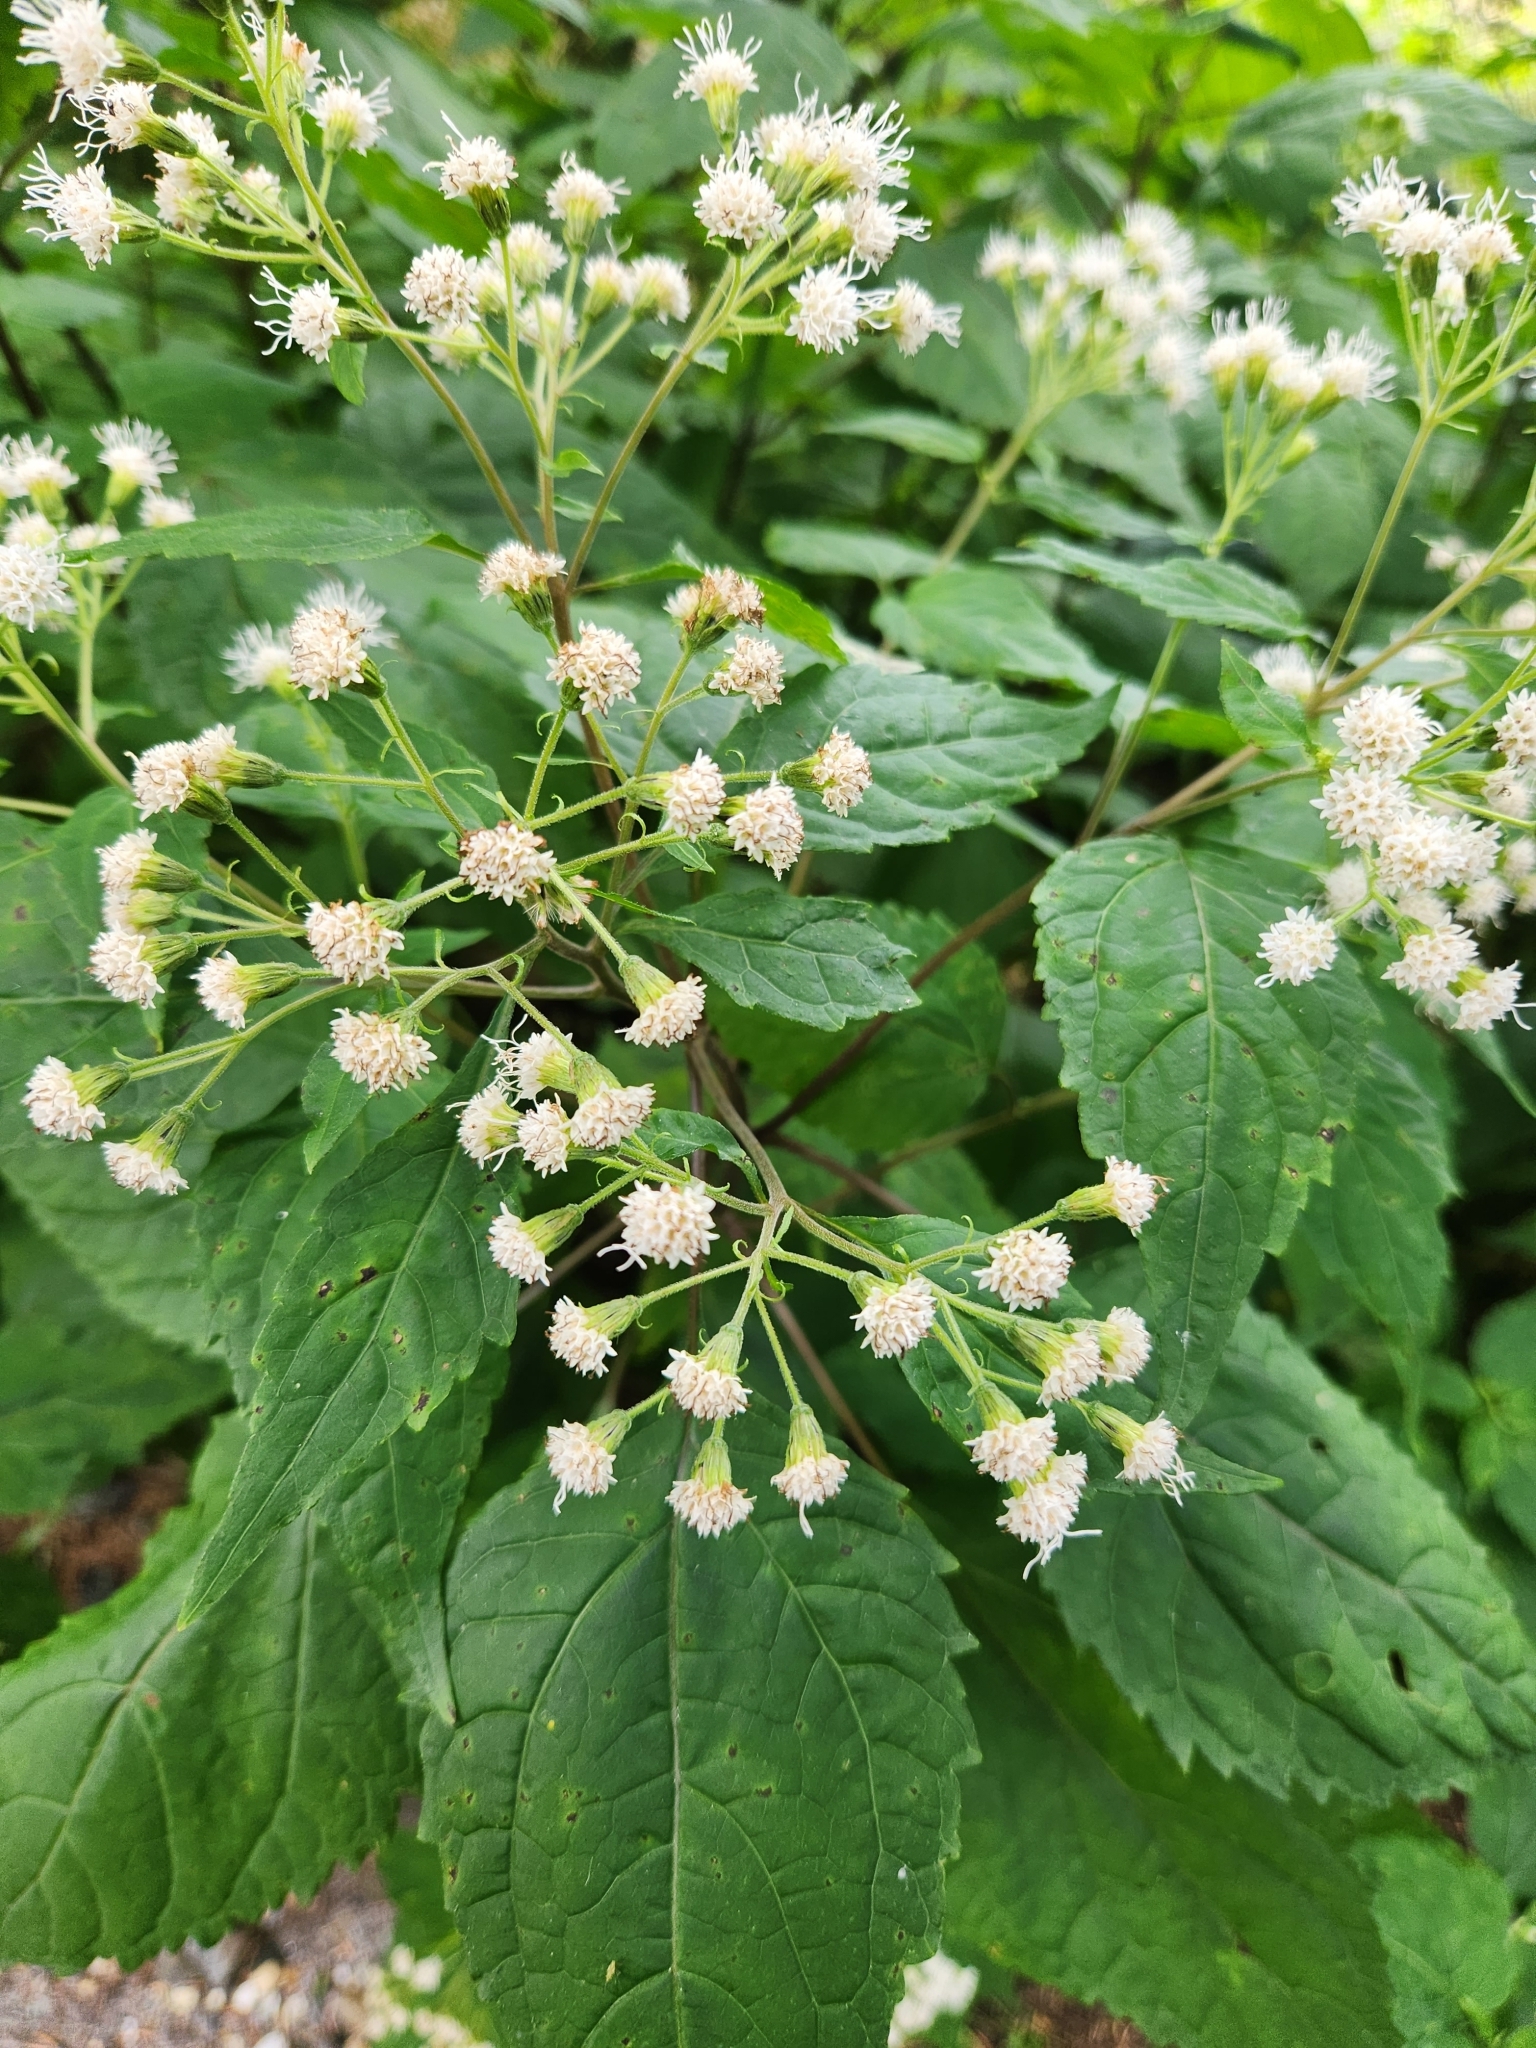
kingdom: Plantae
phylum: Tracheophyta
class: Magnoliopsida
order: Asterales
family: Asteraceae
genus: Ageratina
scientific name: Ageratina altissima
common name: White snakeroot
